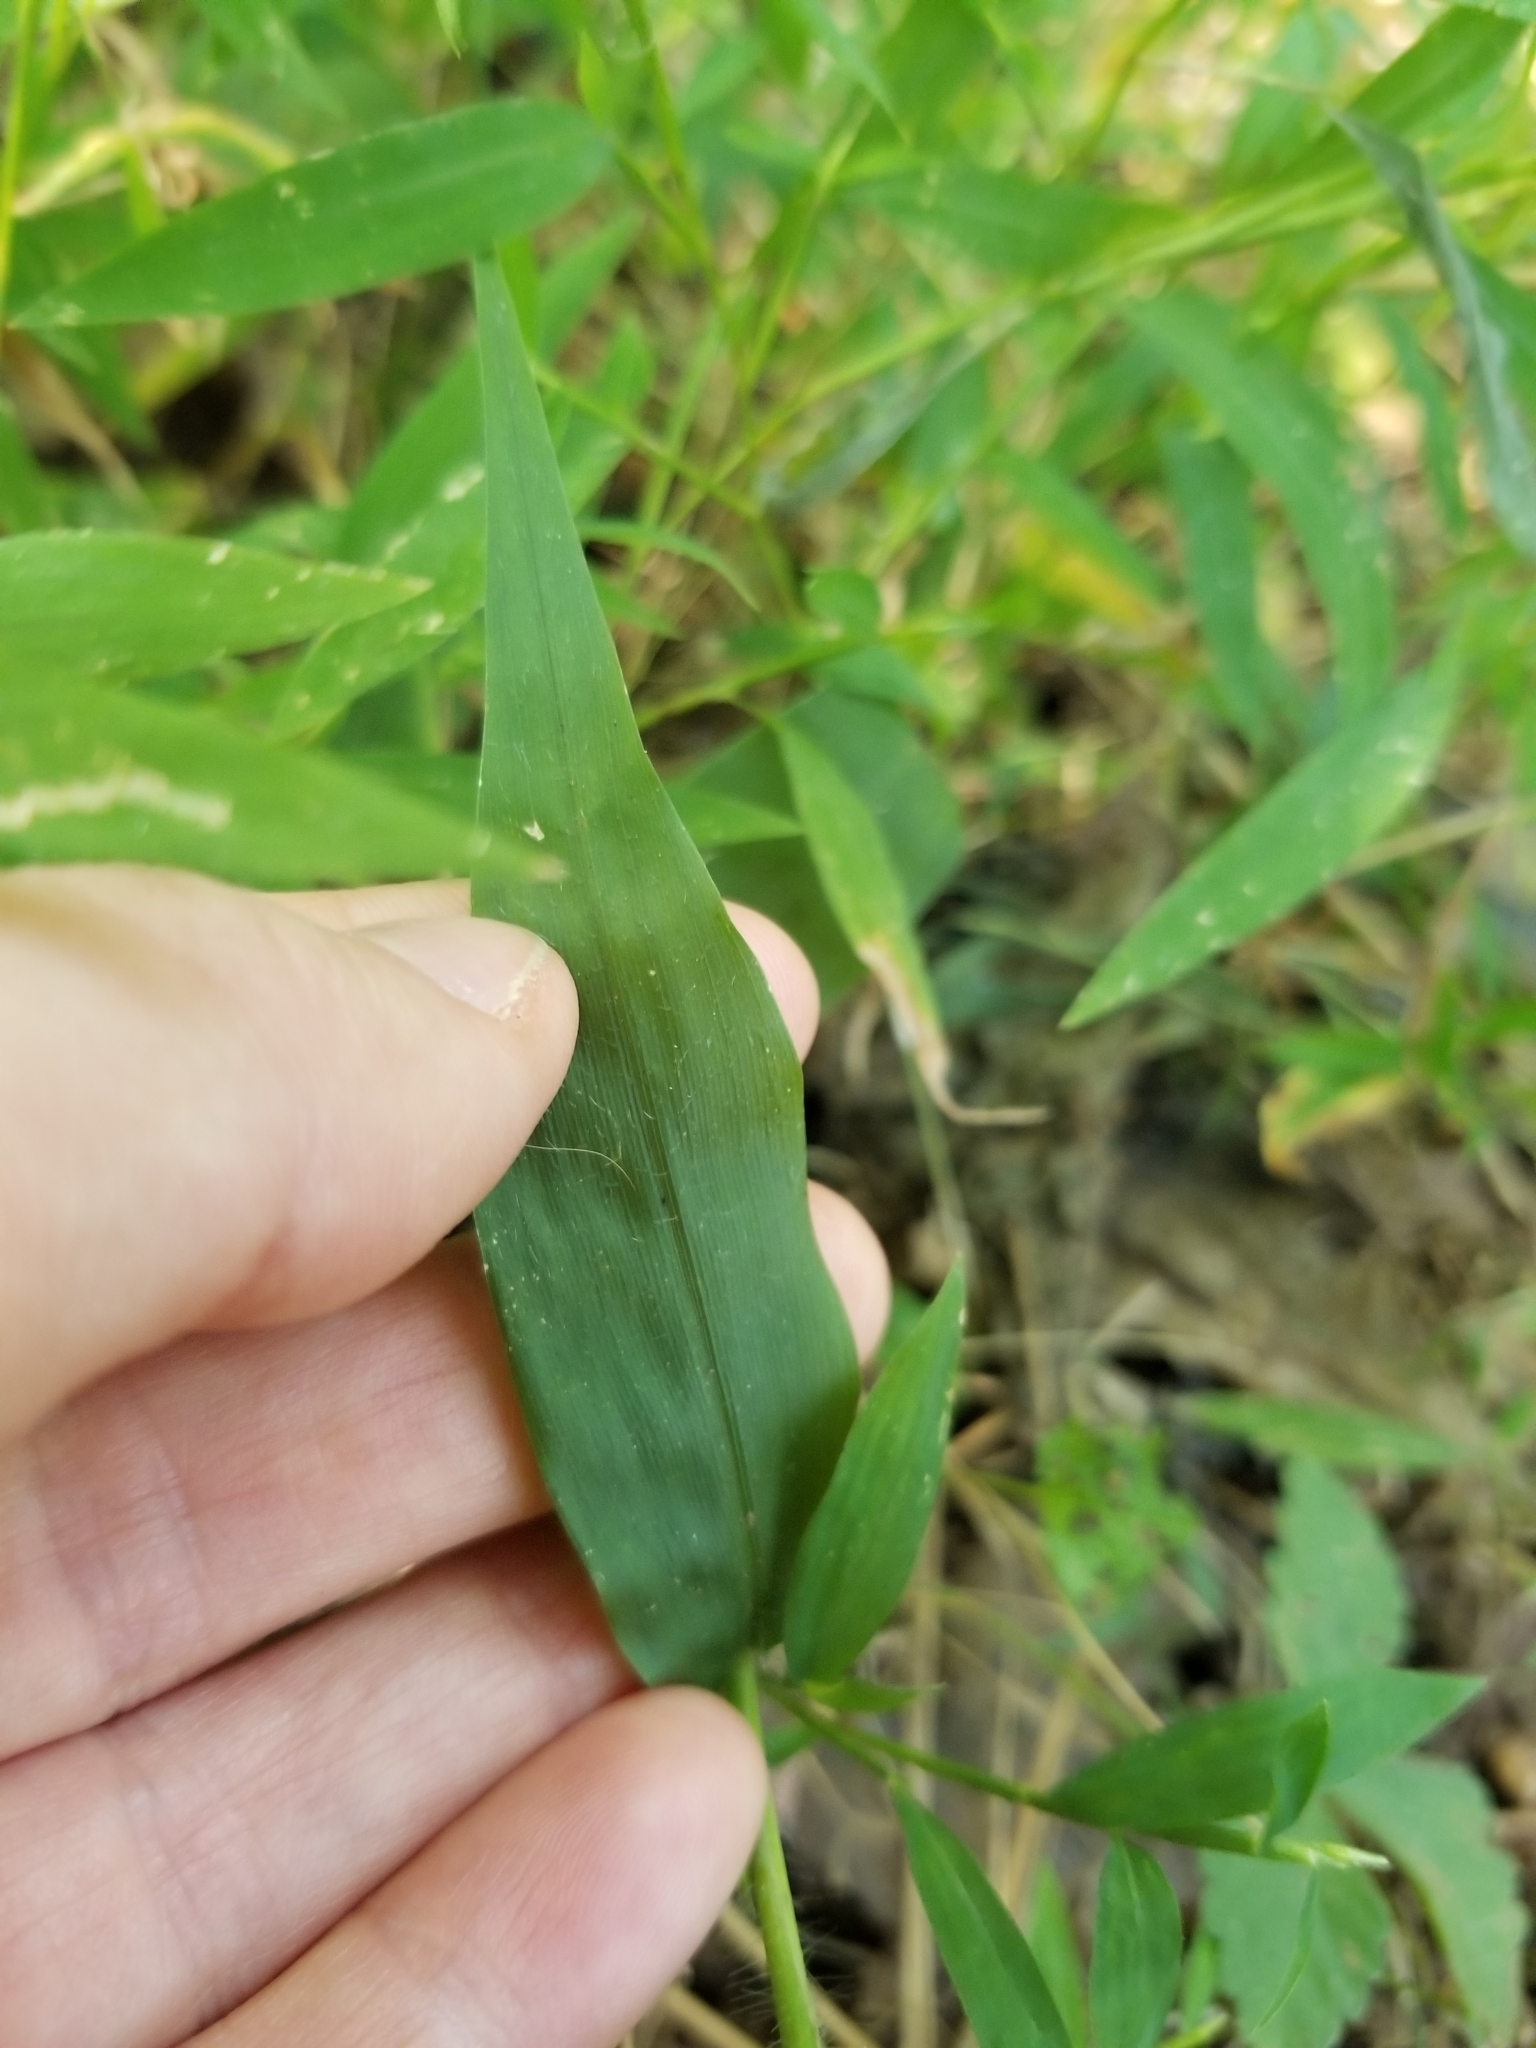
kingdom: Plantae
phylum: Tracheophyta
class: Liliopsida
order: Poales
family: Poaceae
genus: Oplismenus
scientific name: Oplismenus undulatifolius
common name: Wavyleaf basketgrass
